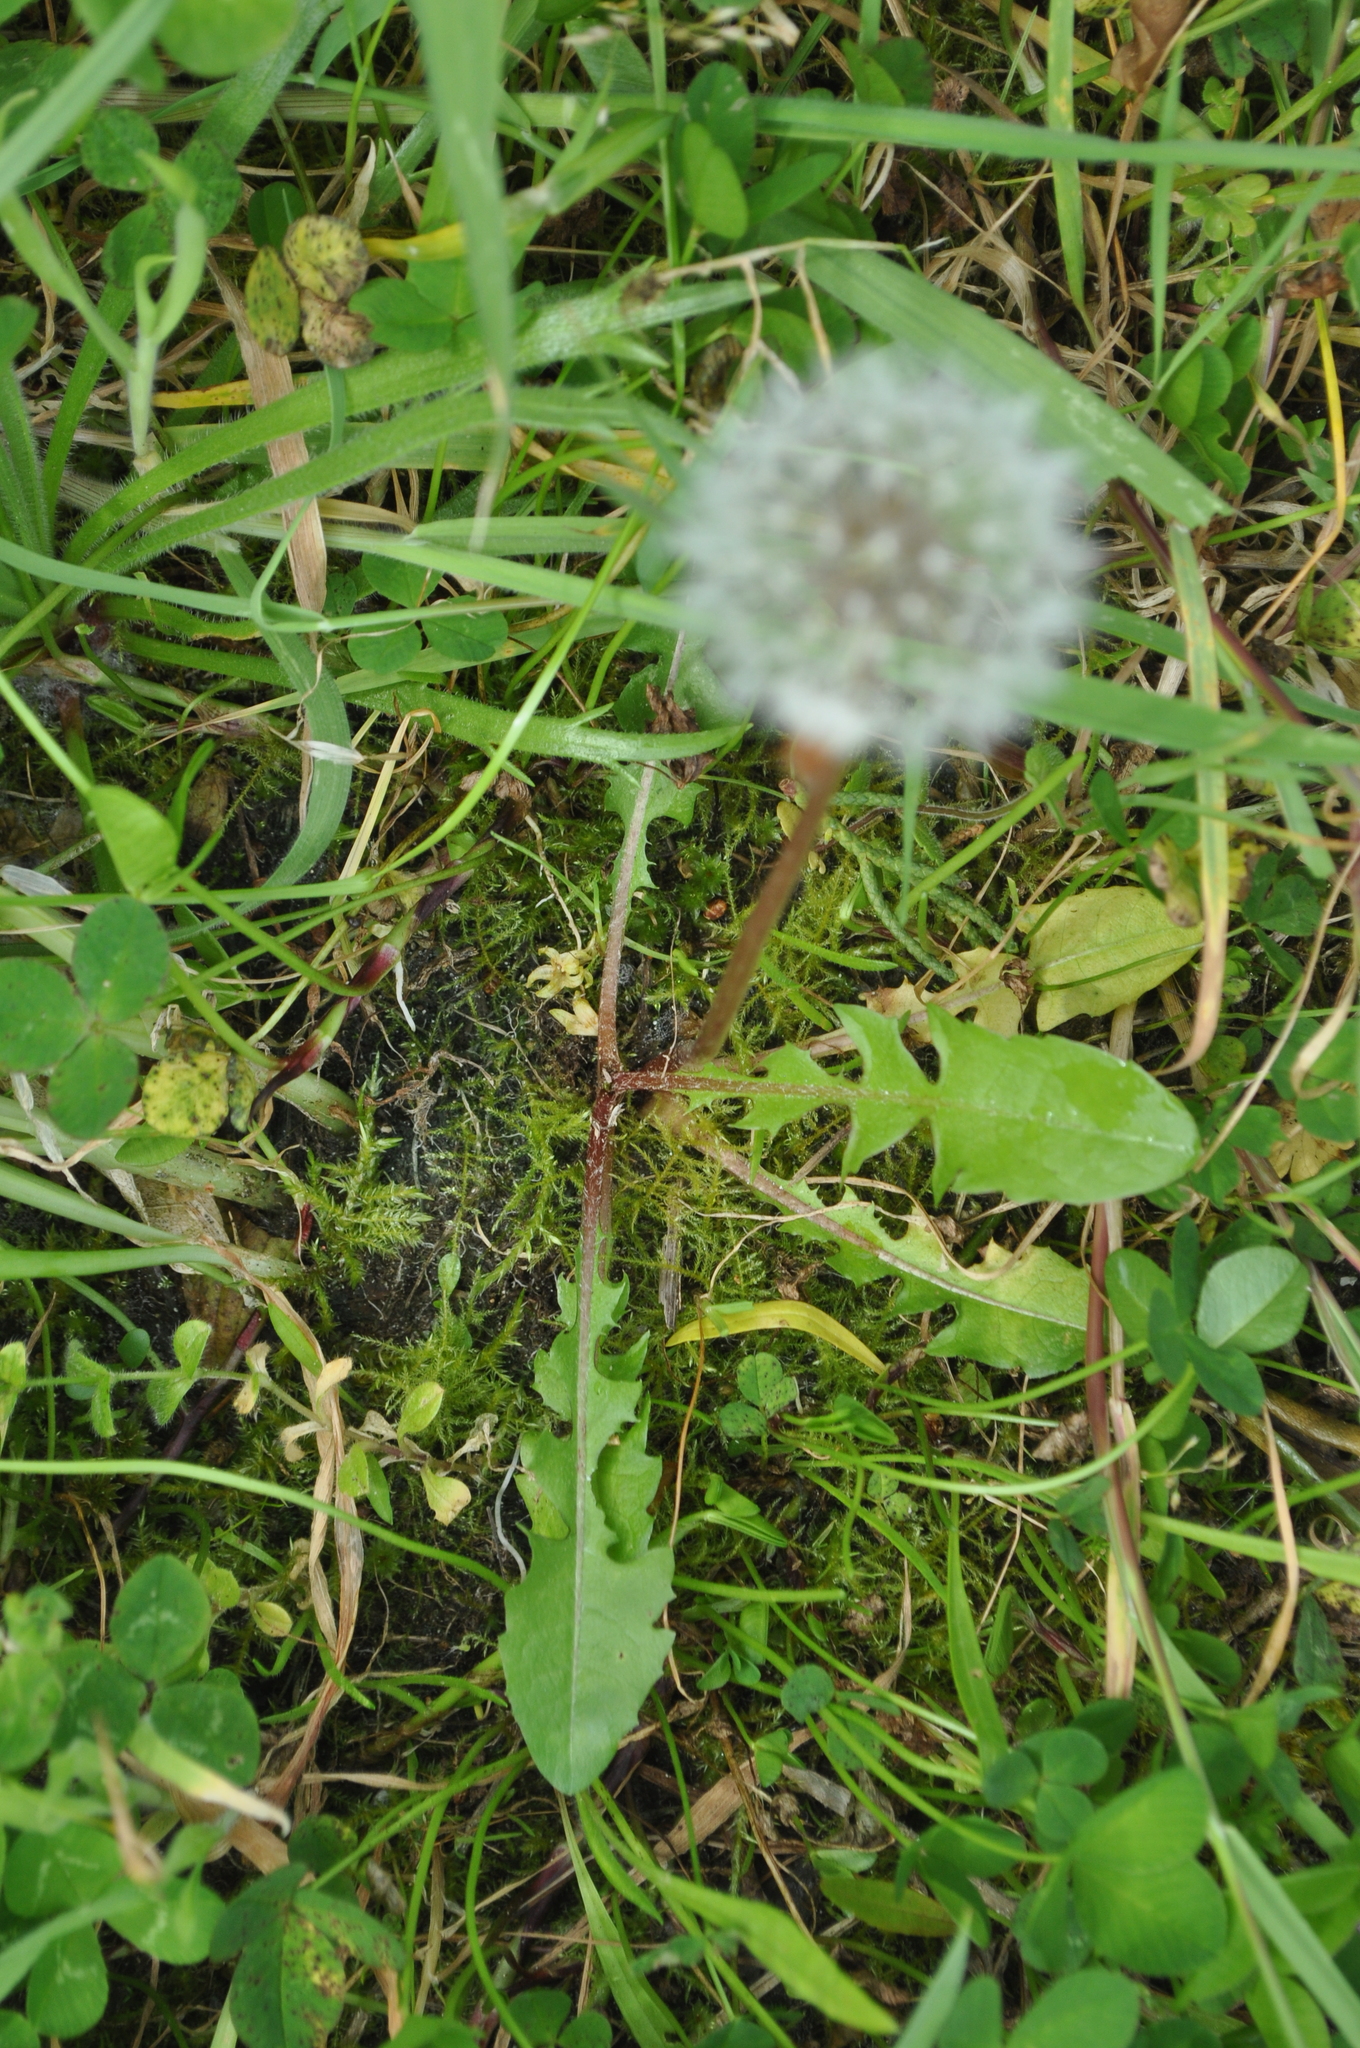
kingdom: Plantae
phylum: Tracheophyta
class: Magnoliopsida
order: Asterales
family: Asteraceae
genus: Taraxacum
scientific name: Taraxacum officinale
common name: Common dandelion
